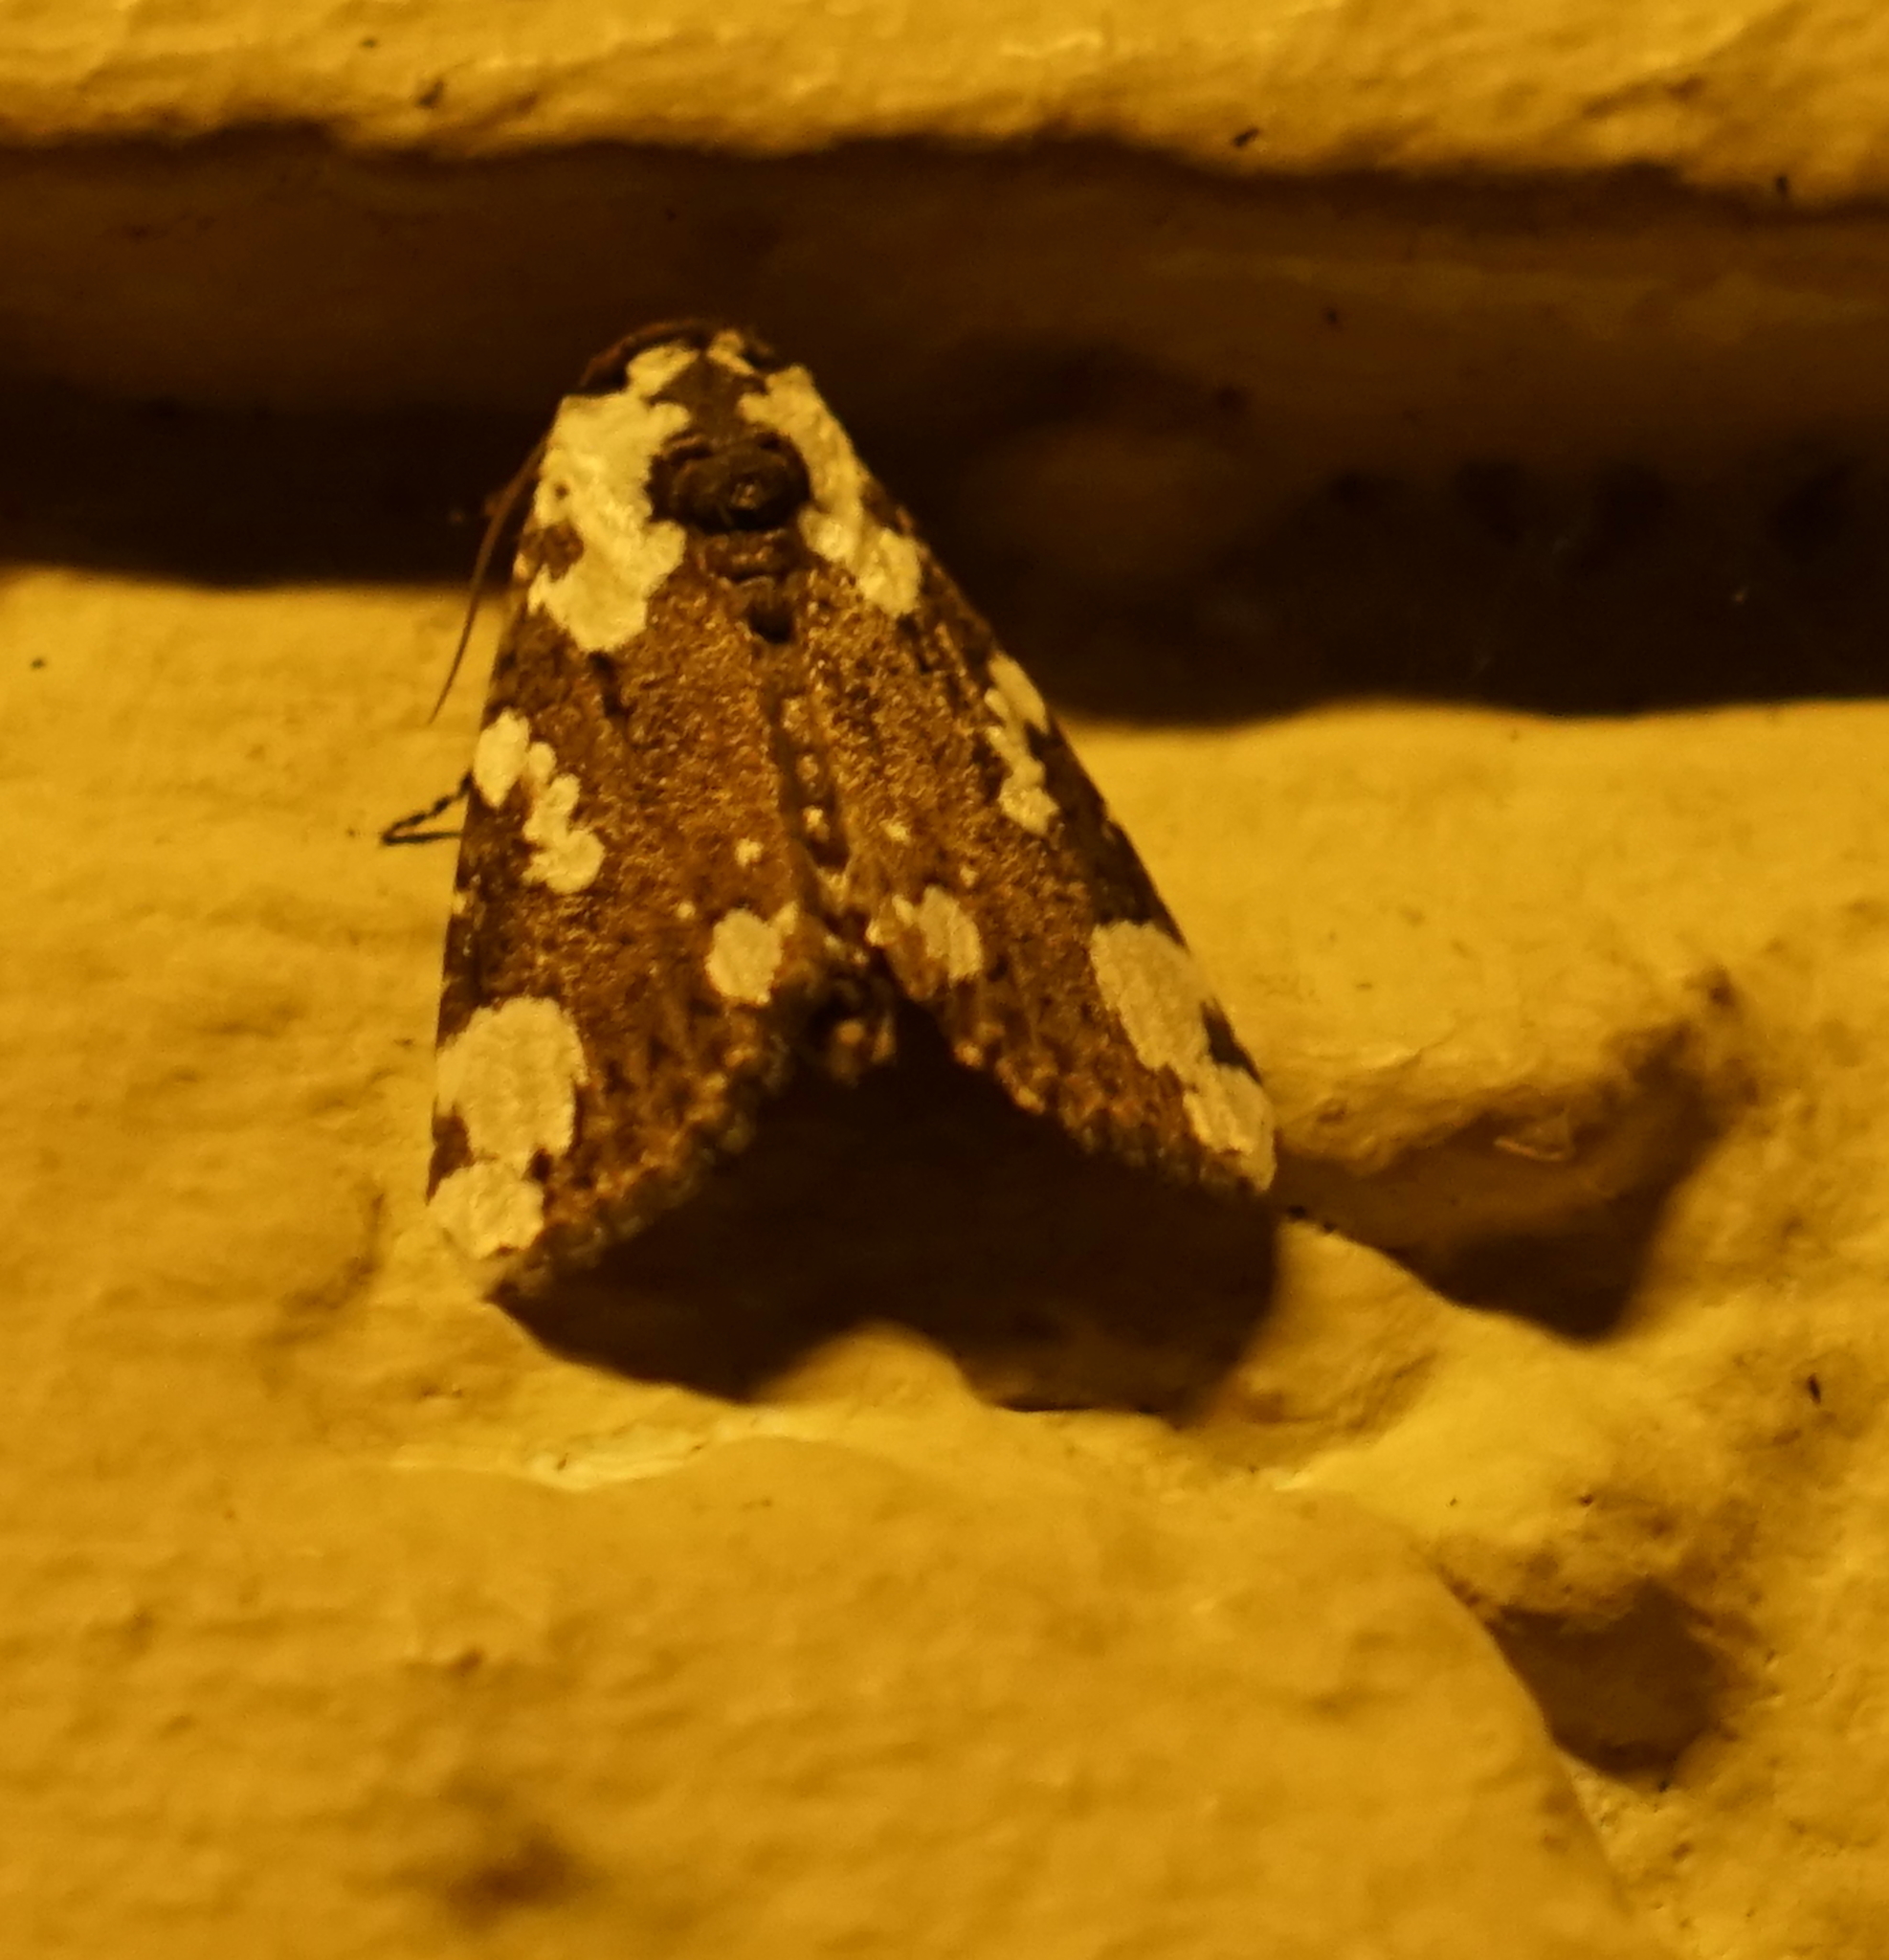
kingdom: Animalia
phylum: Arthropoda
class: Insecta
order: Lepidoptera
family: Noctuidae
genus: Mudaria
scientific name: Mudaria major
